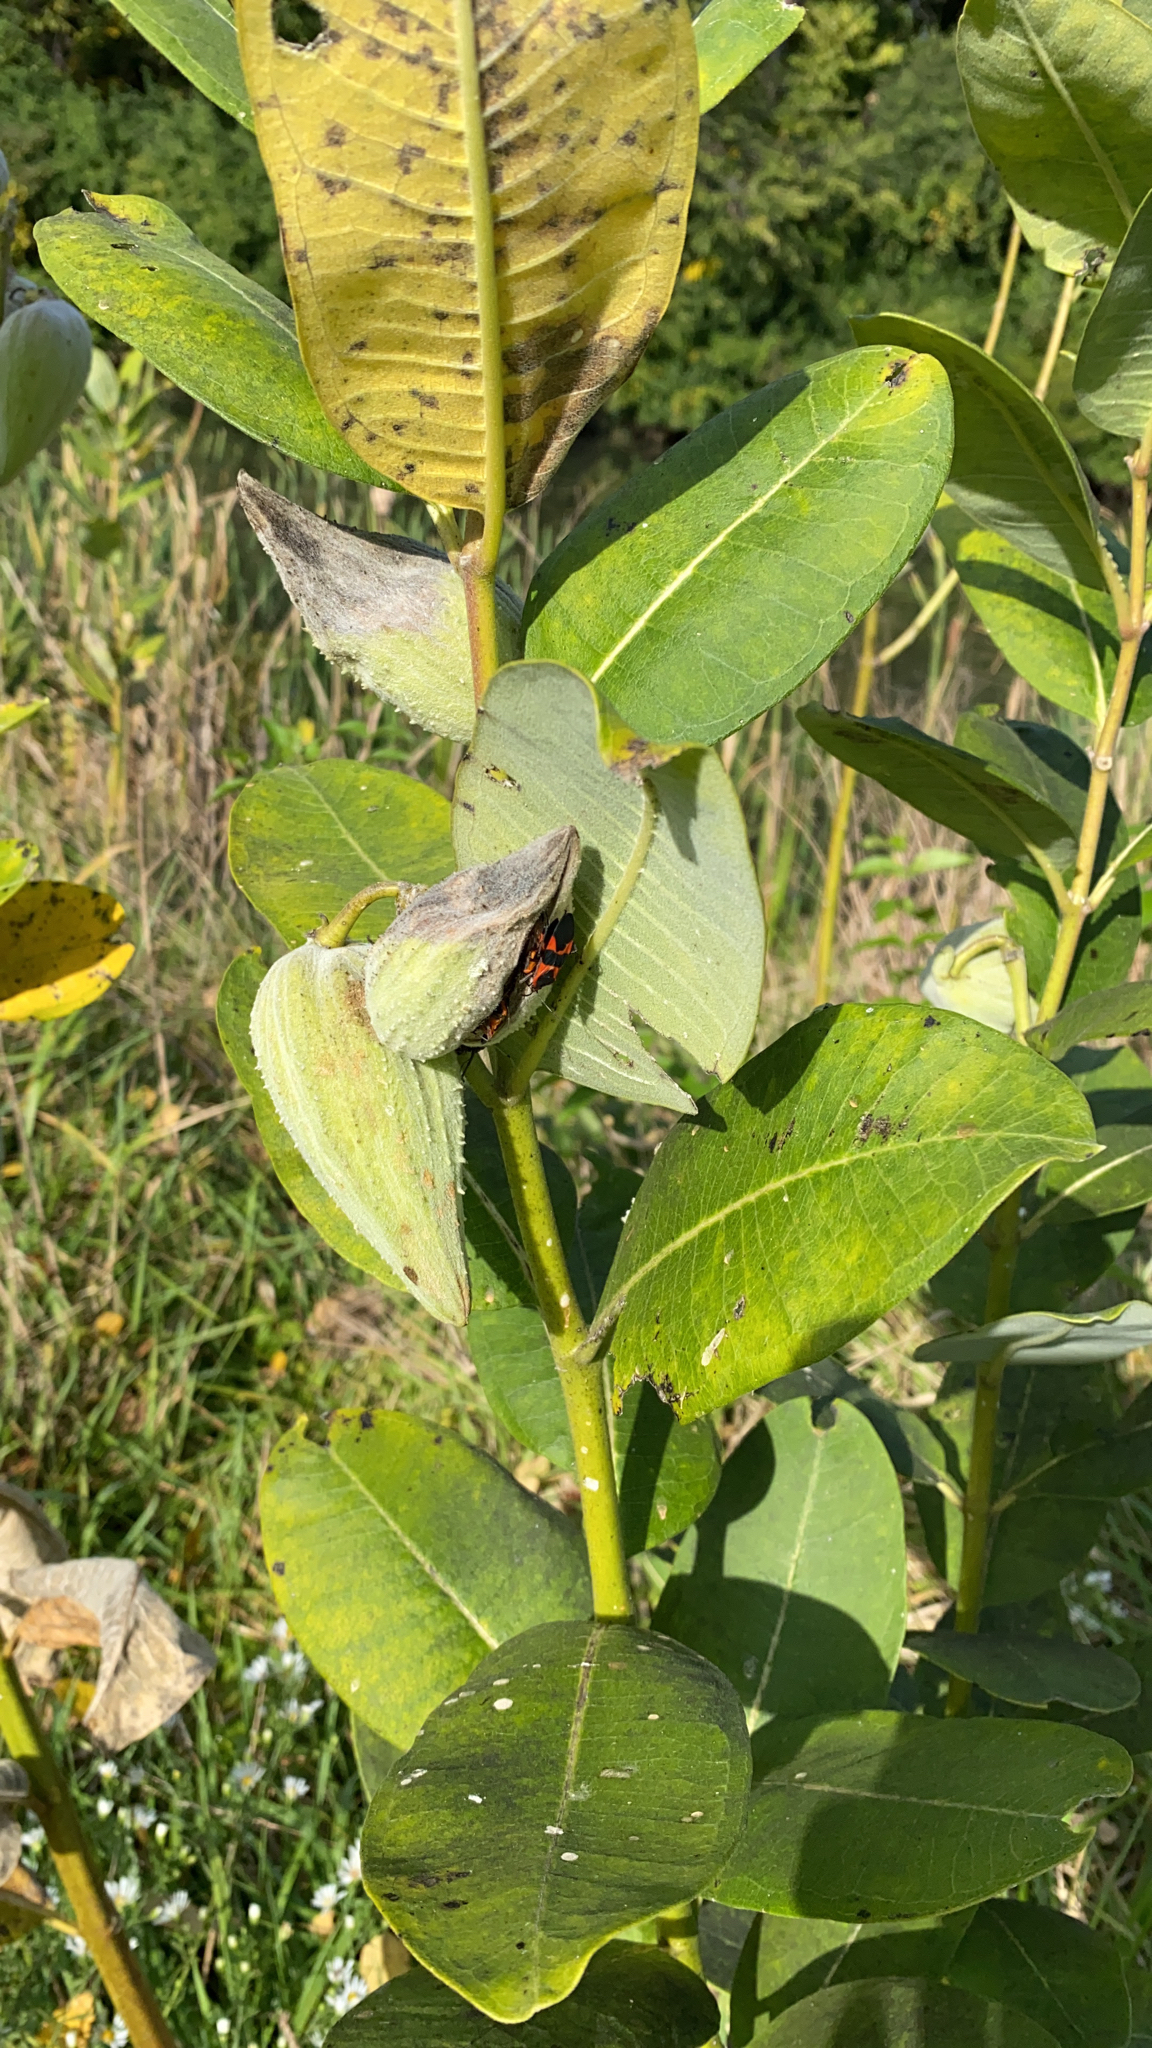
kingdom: Plantae
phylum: Tracheophyta
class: Magnoliopsida
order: Gentianales
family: Apocynaceae
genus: Asclepias
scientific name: Asclepias syriaca
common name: Common milkweed
